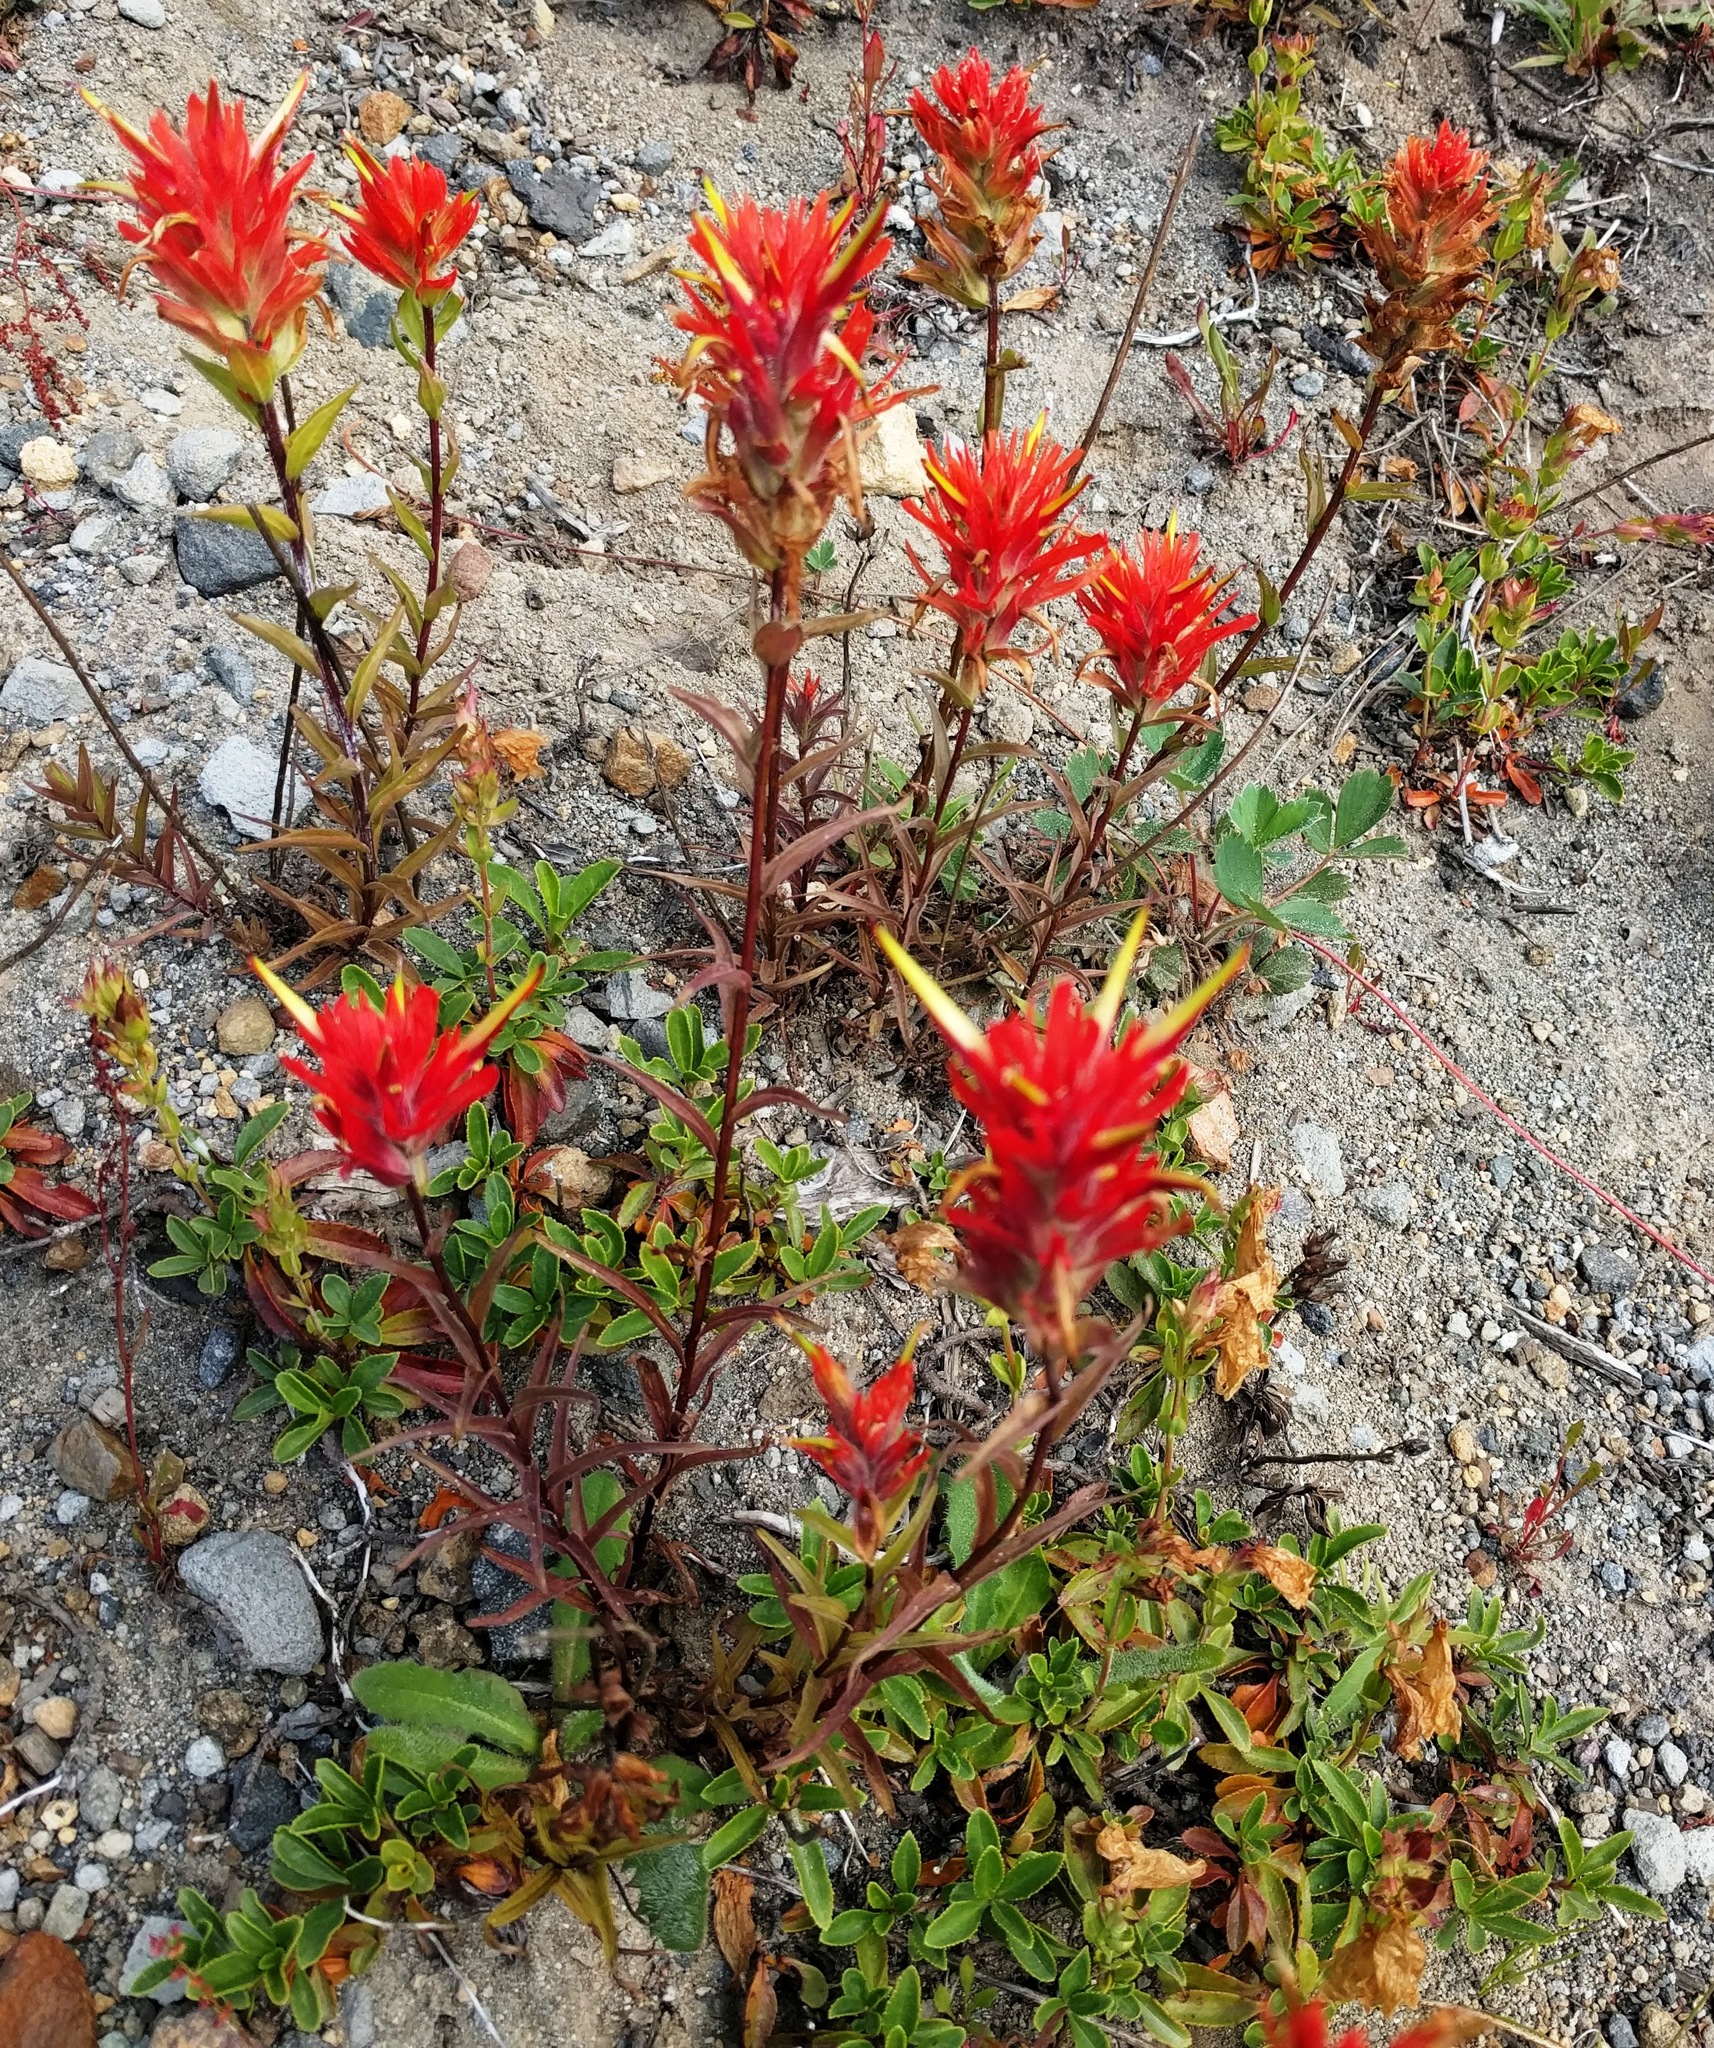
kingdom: Plantae
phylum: Tracheophyta
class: Magnoliopsida
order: Lamiales
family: Orobanchaceae
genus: Castilleja
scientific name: Castilleja miniata
